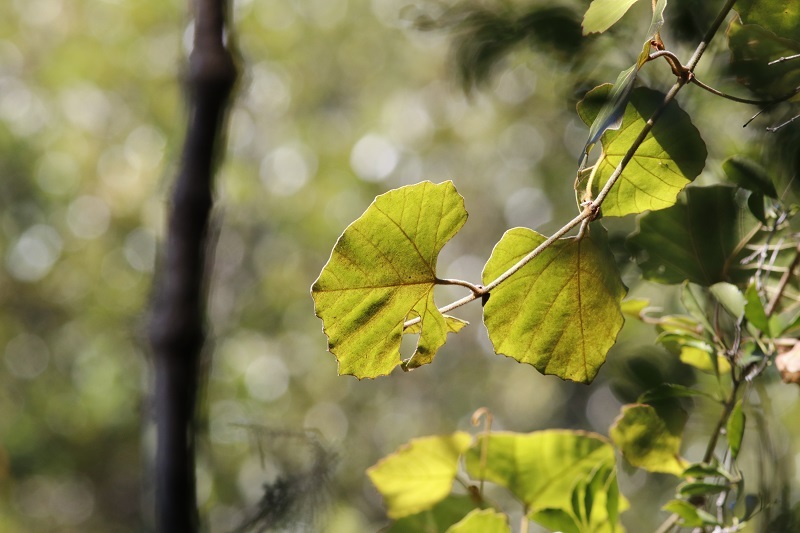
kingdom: Plantae
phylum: Tracheophyta
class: Magnoliopsida
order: Vitales
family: Vitaceae
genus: Rhoicissus
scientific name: Rhoicissus tomentosa
